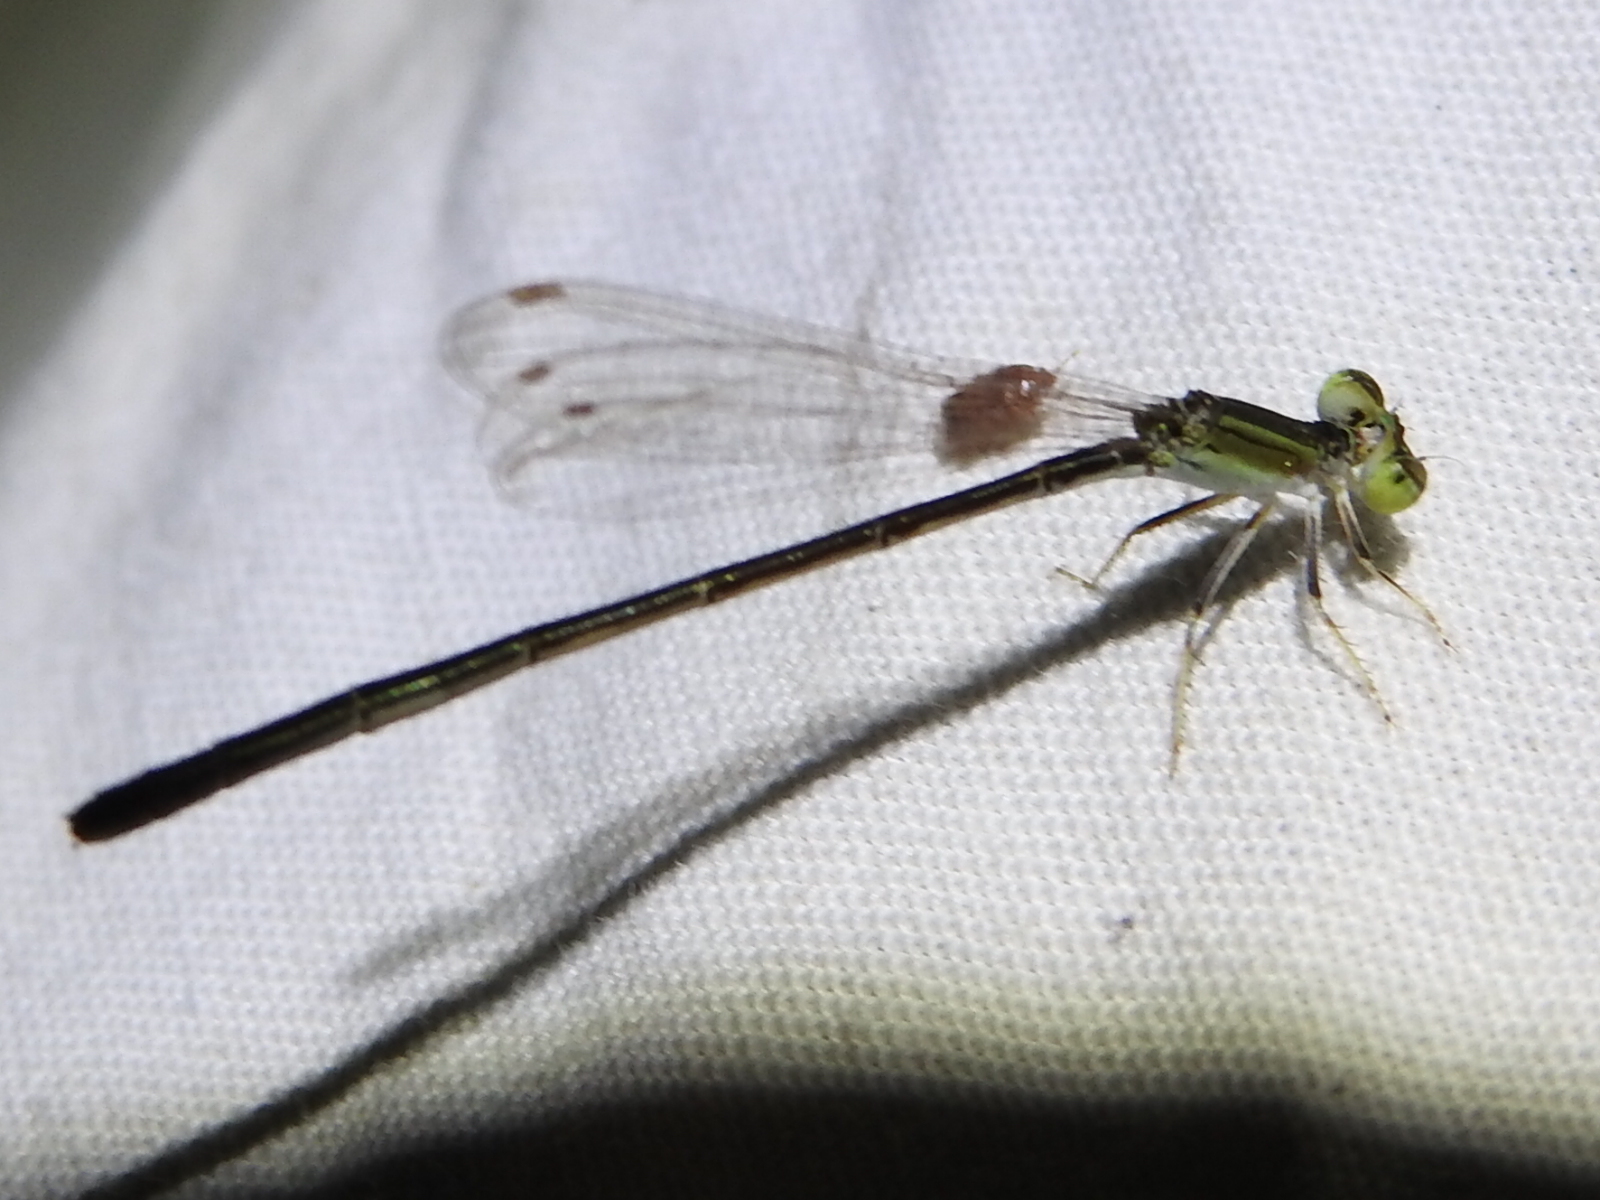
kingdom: Animalia
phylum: Arthropoda
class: Insecta
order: Odonata
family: Coenagrionidae
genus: Ischnura
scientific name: Ischnura hastata
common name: Citrine forktail
